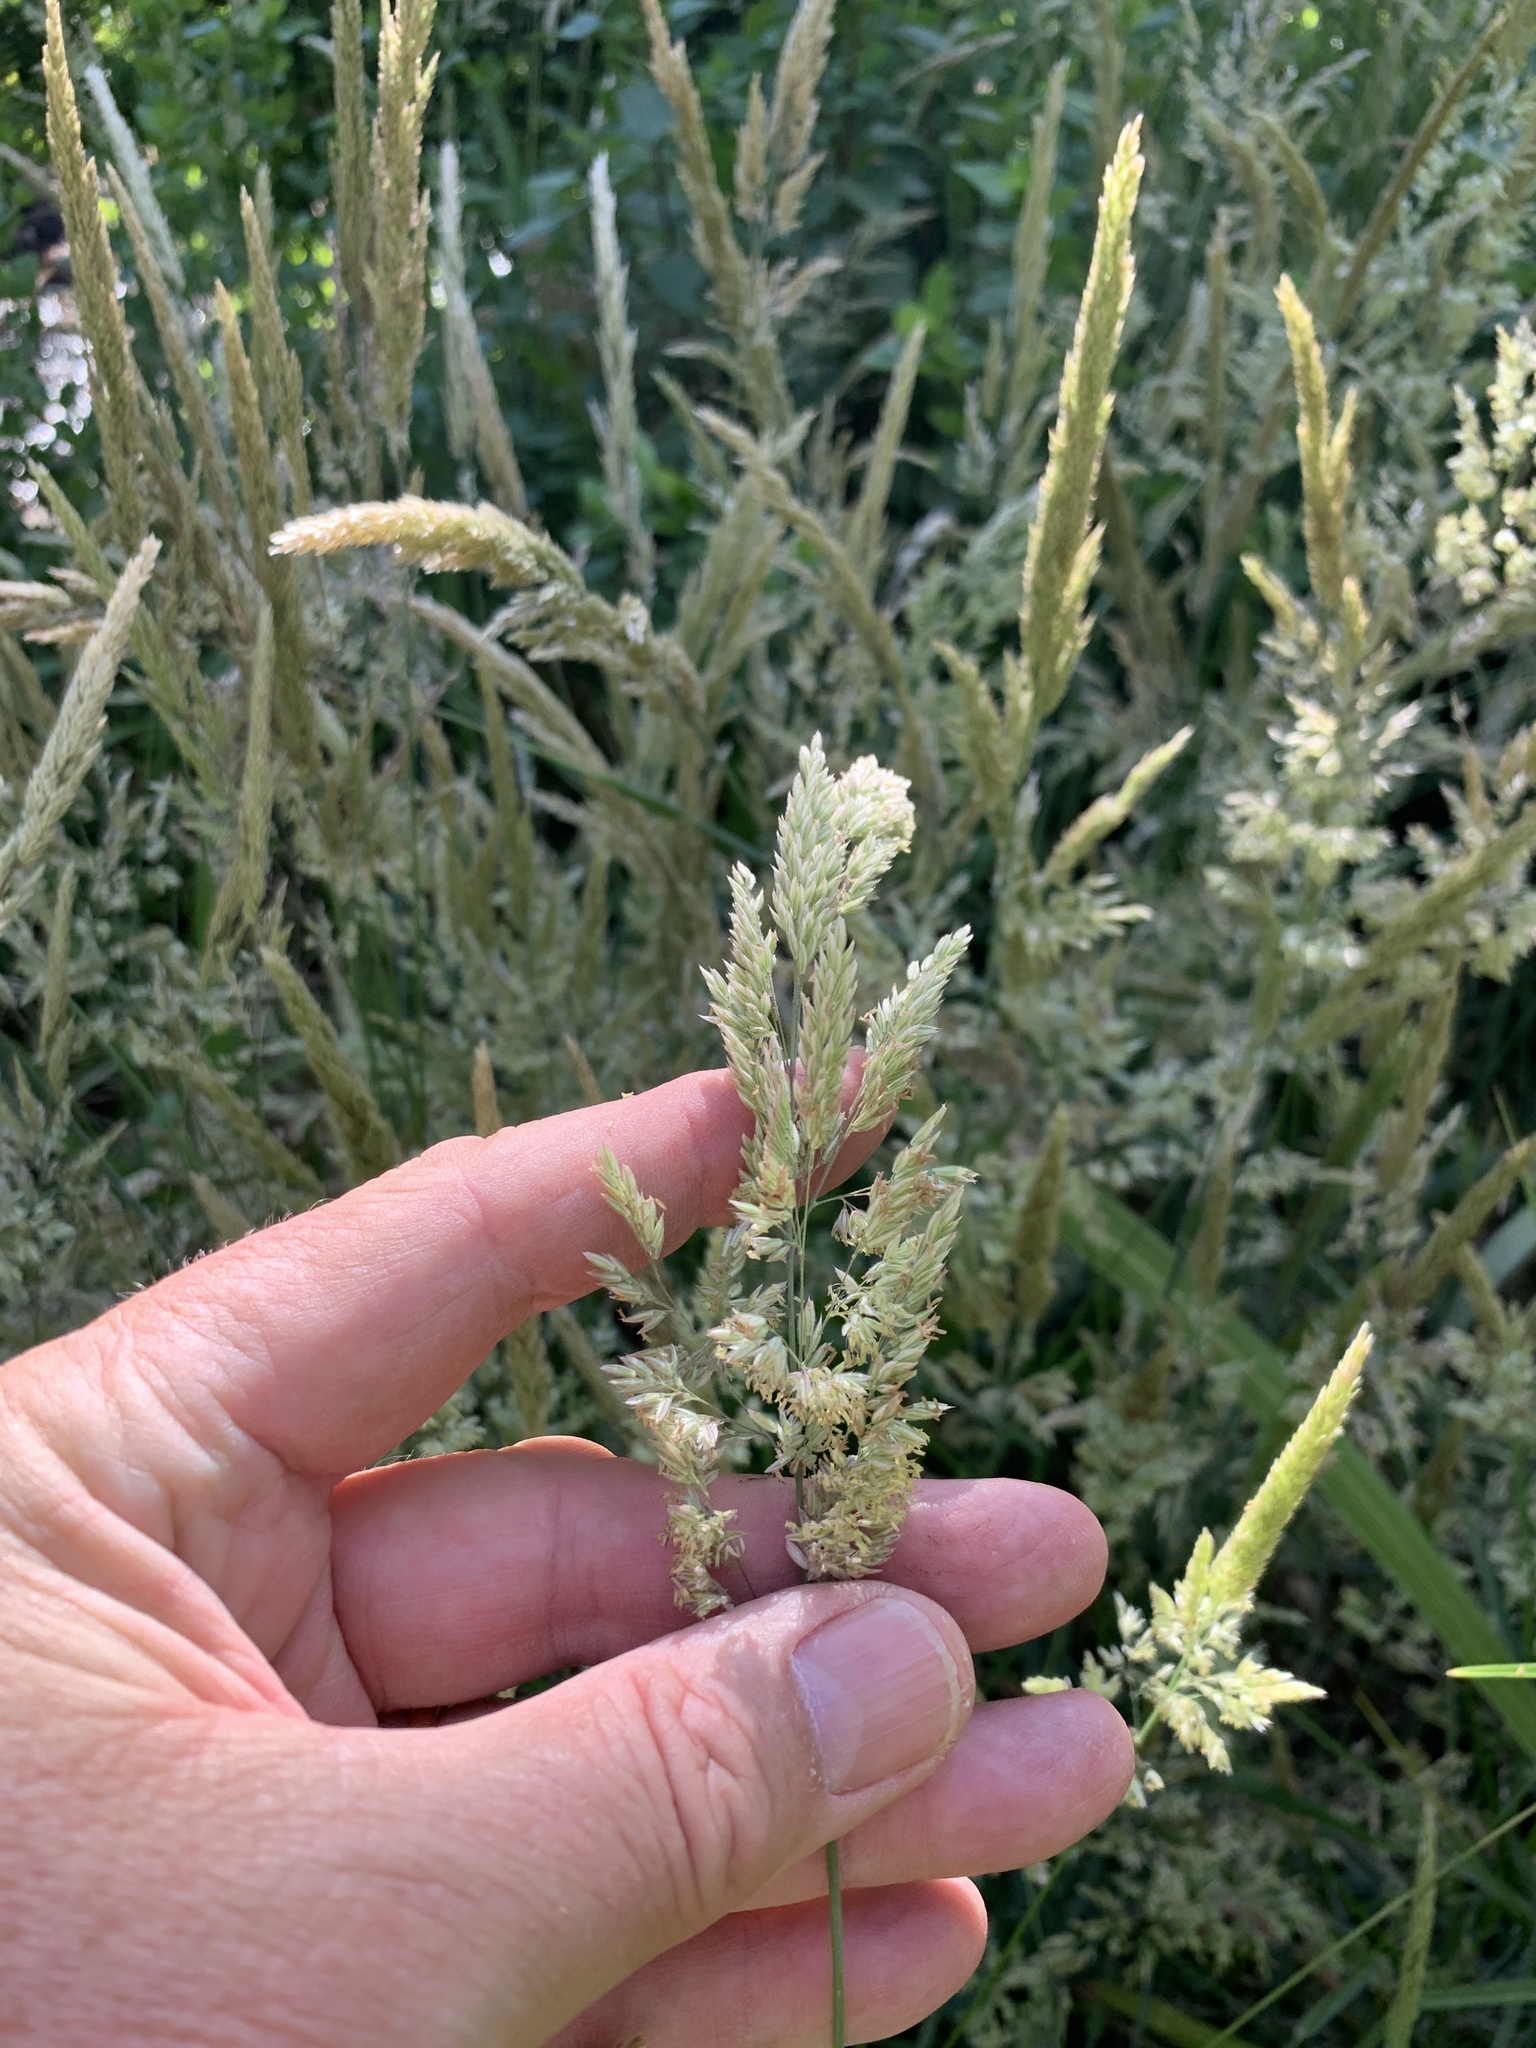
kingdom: Plantae
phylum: Tracheophyta
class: Liliopsida
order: Poales
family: Poaceae
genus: Holcus
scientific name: Holcus lanatus
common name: Yorkshire-fog
